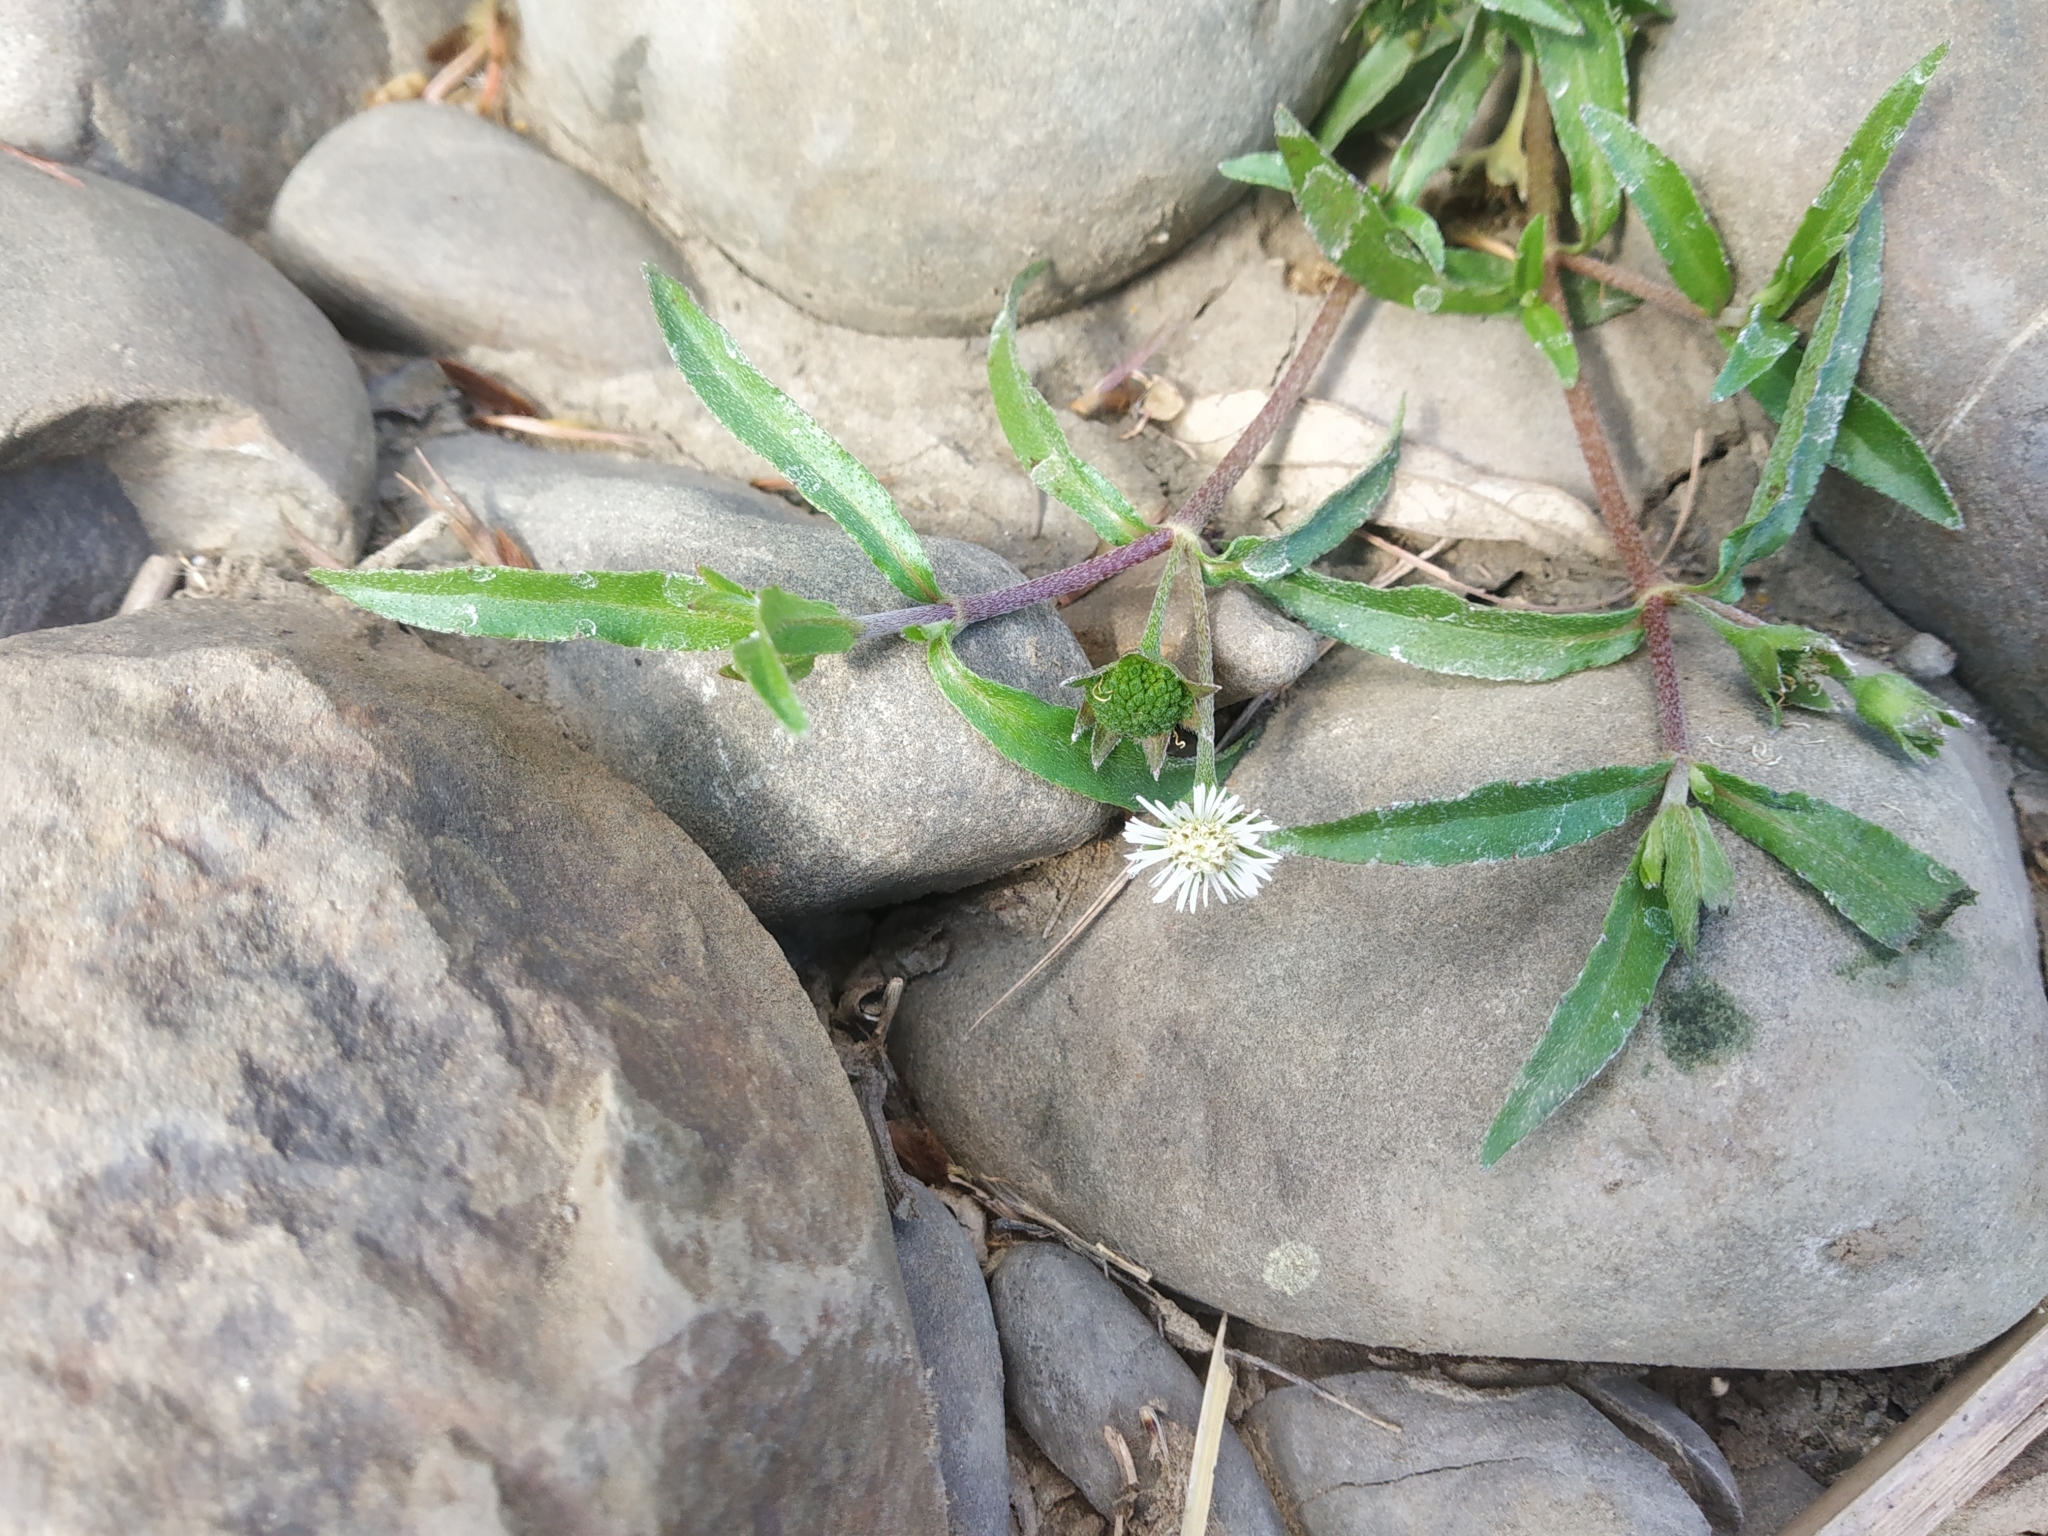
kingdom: Plantae
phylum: Tracheophyta
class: Magnoliopsida
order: Asterales
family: Asteraceae
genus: Eclipta
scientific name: Eclipta prostrata
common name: False daisy
